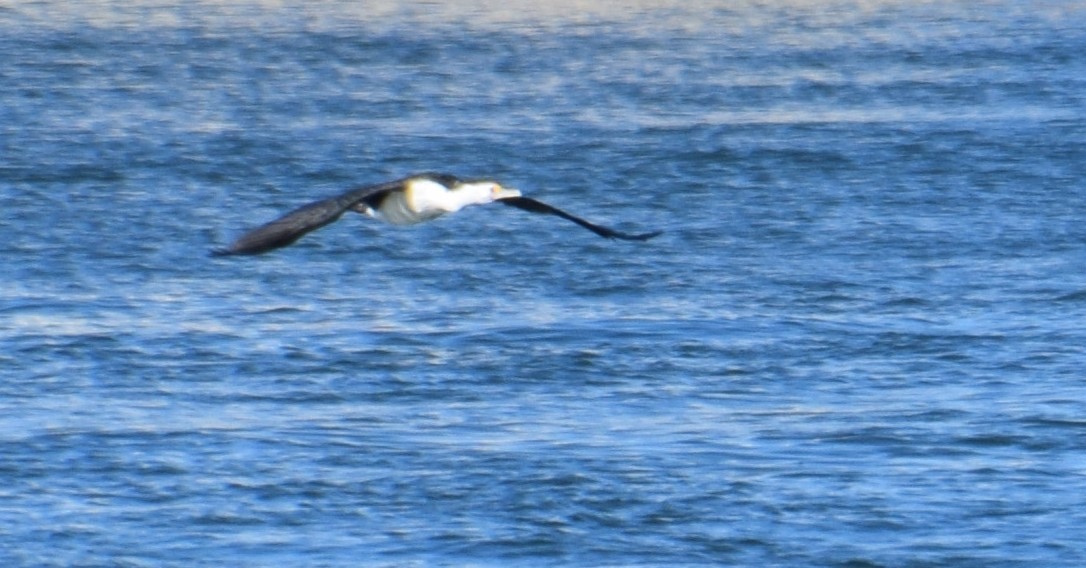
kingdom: Animalia
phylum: Chordata
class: Aves
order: Suliformes
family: Phalacrocoracidae
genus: Phalacrocorax
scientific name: Phalacrocorax varius
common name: Pied cormorant
